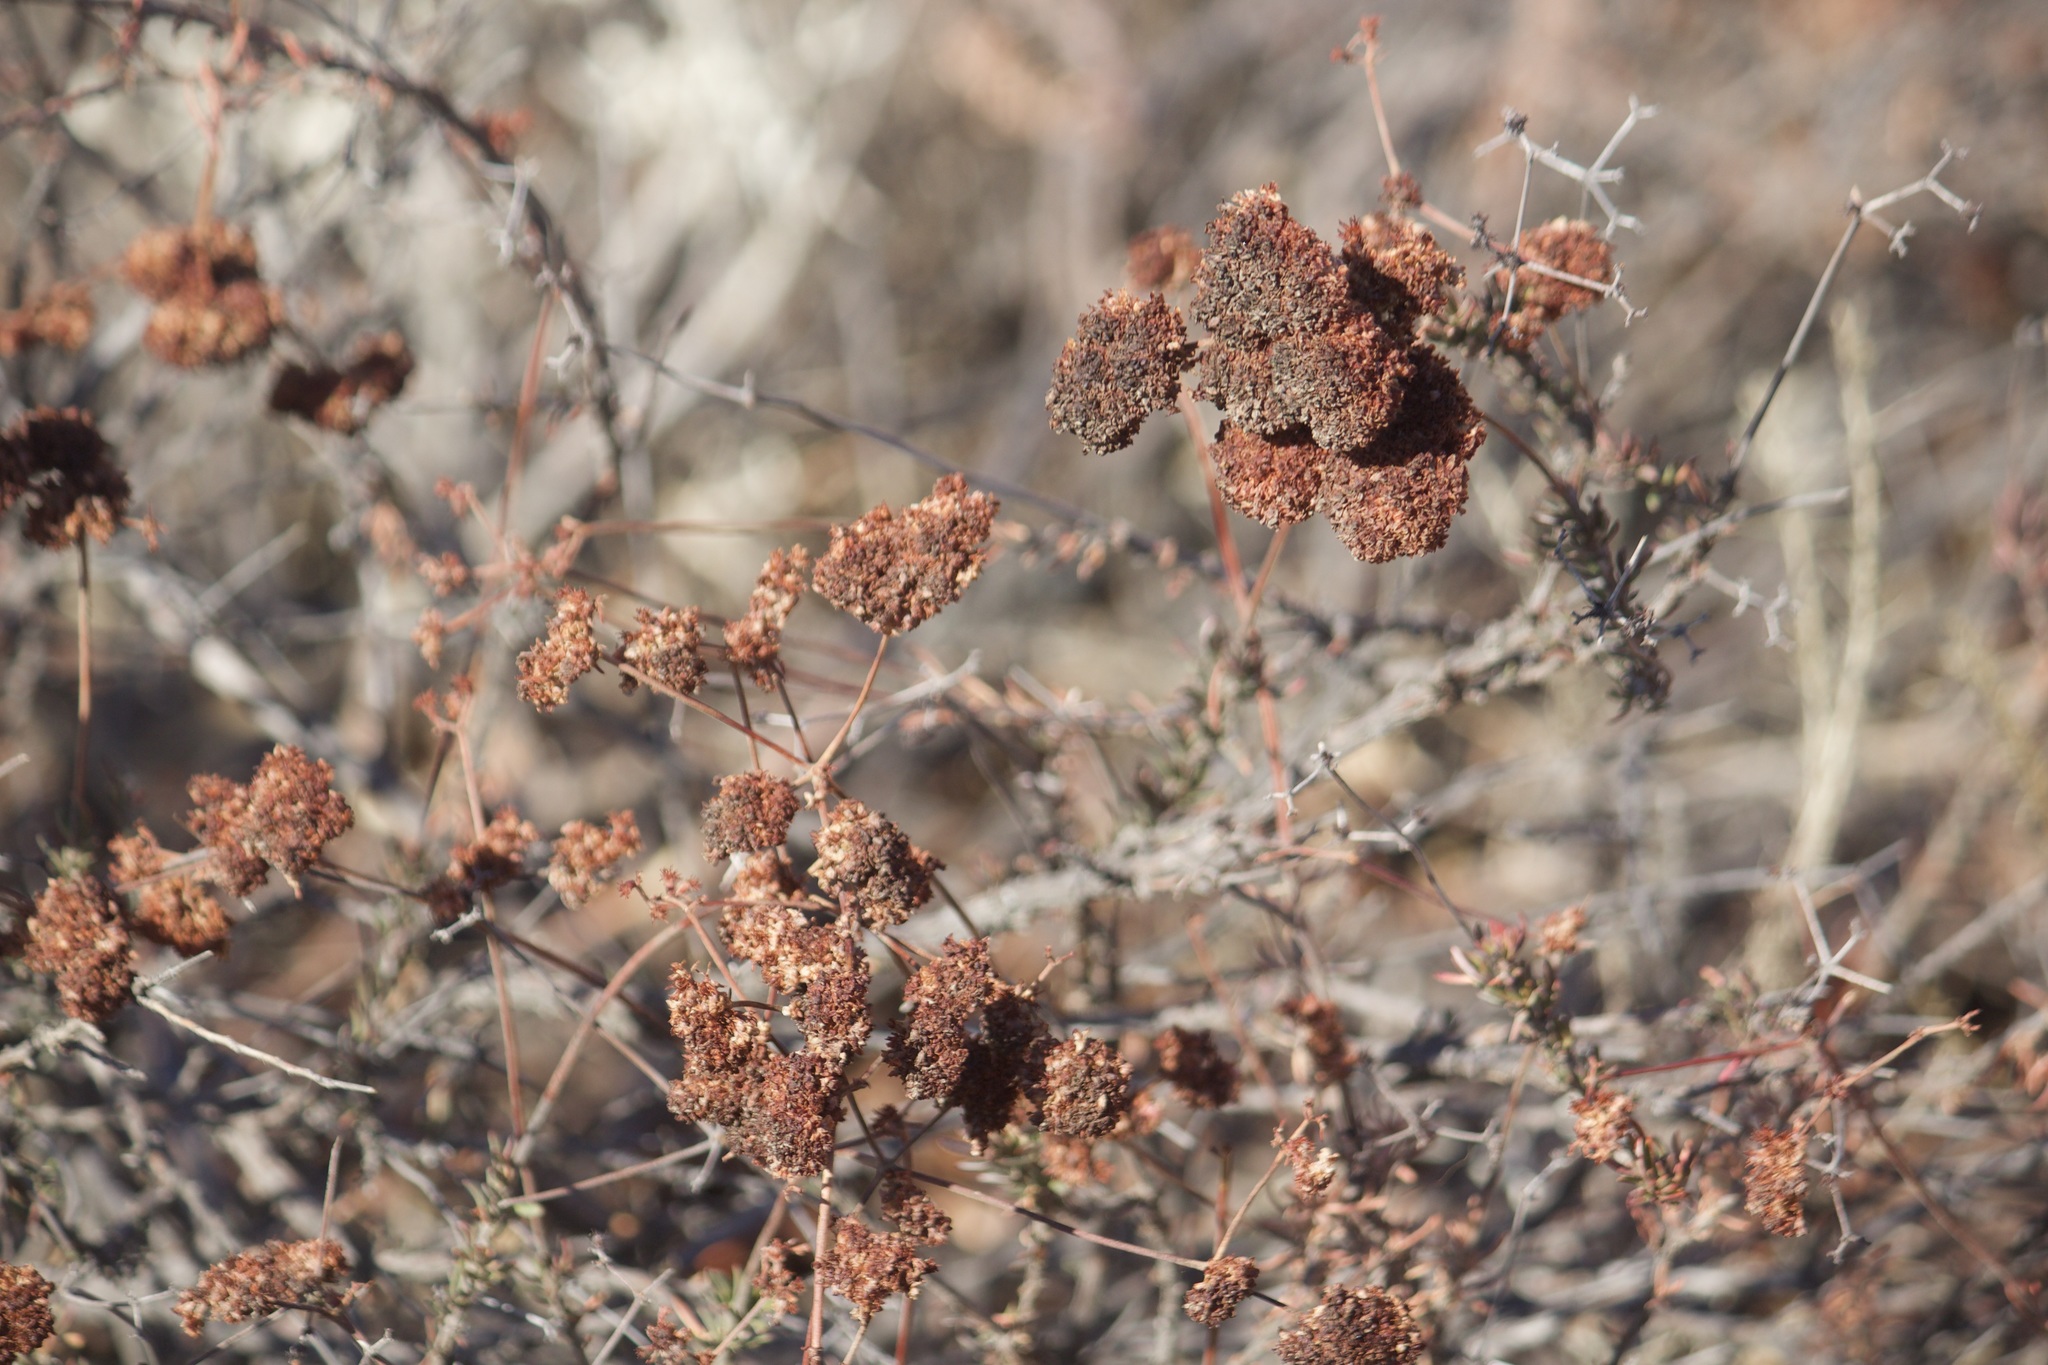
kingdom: Plantae
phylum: Tracheophyta
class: Magnoliopsida
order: Caryophyllales
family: Polygonaceae
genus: Eriogonum
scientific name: Eriogonum fasciculatum
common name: California wild buckwheat
